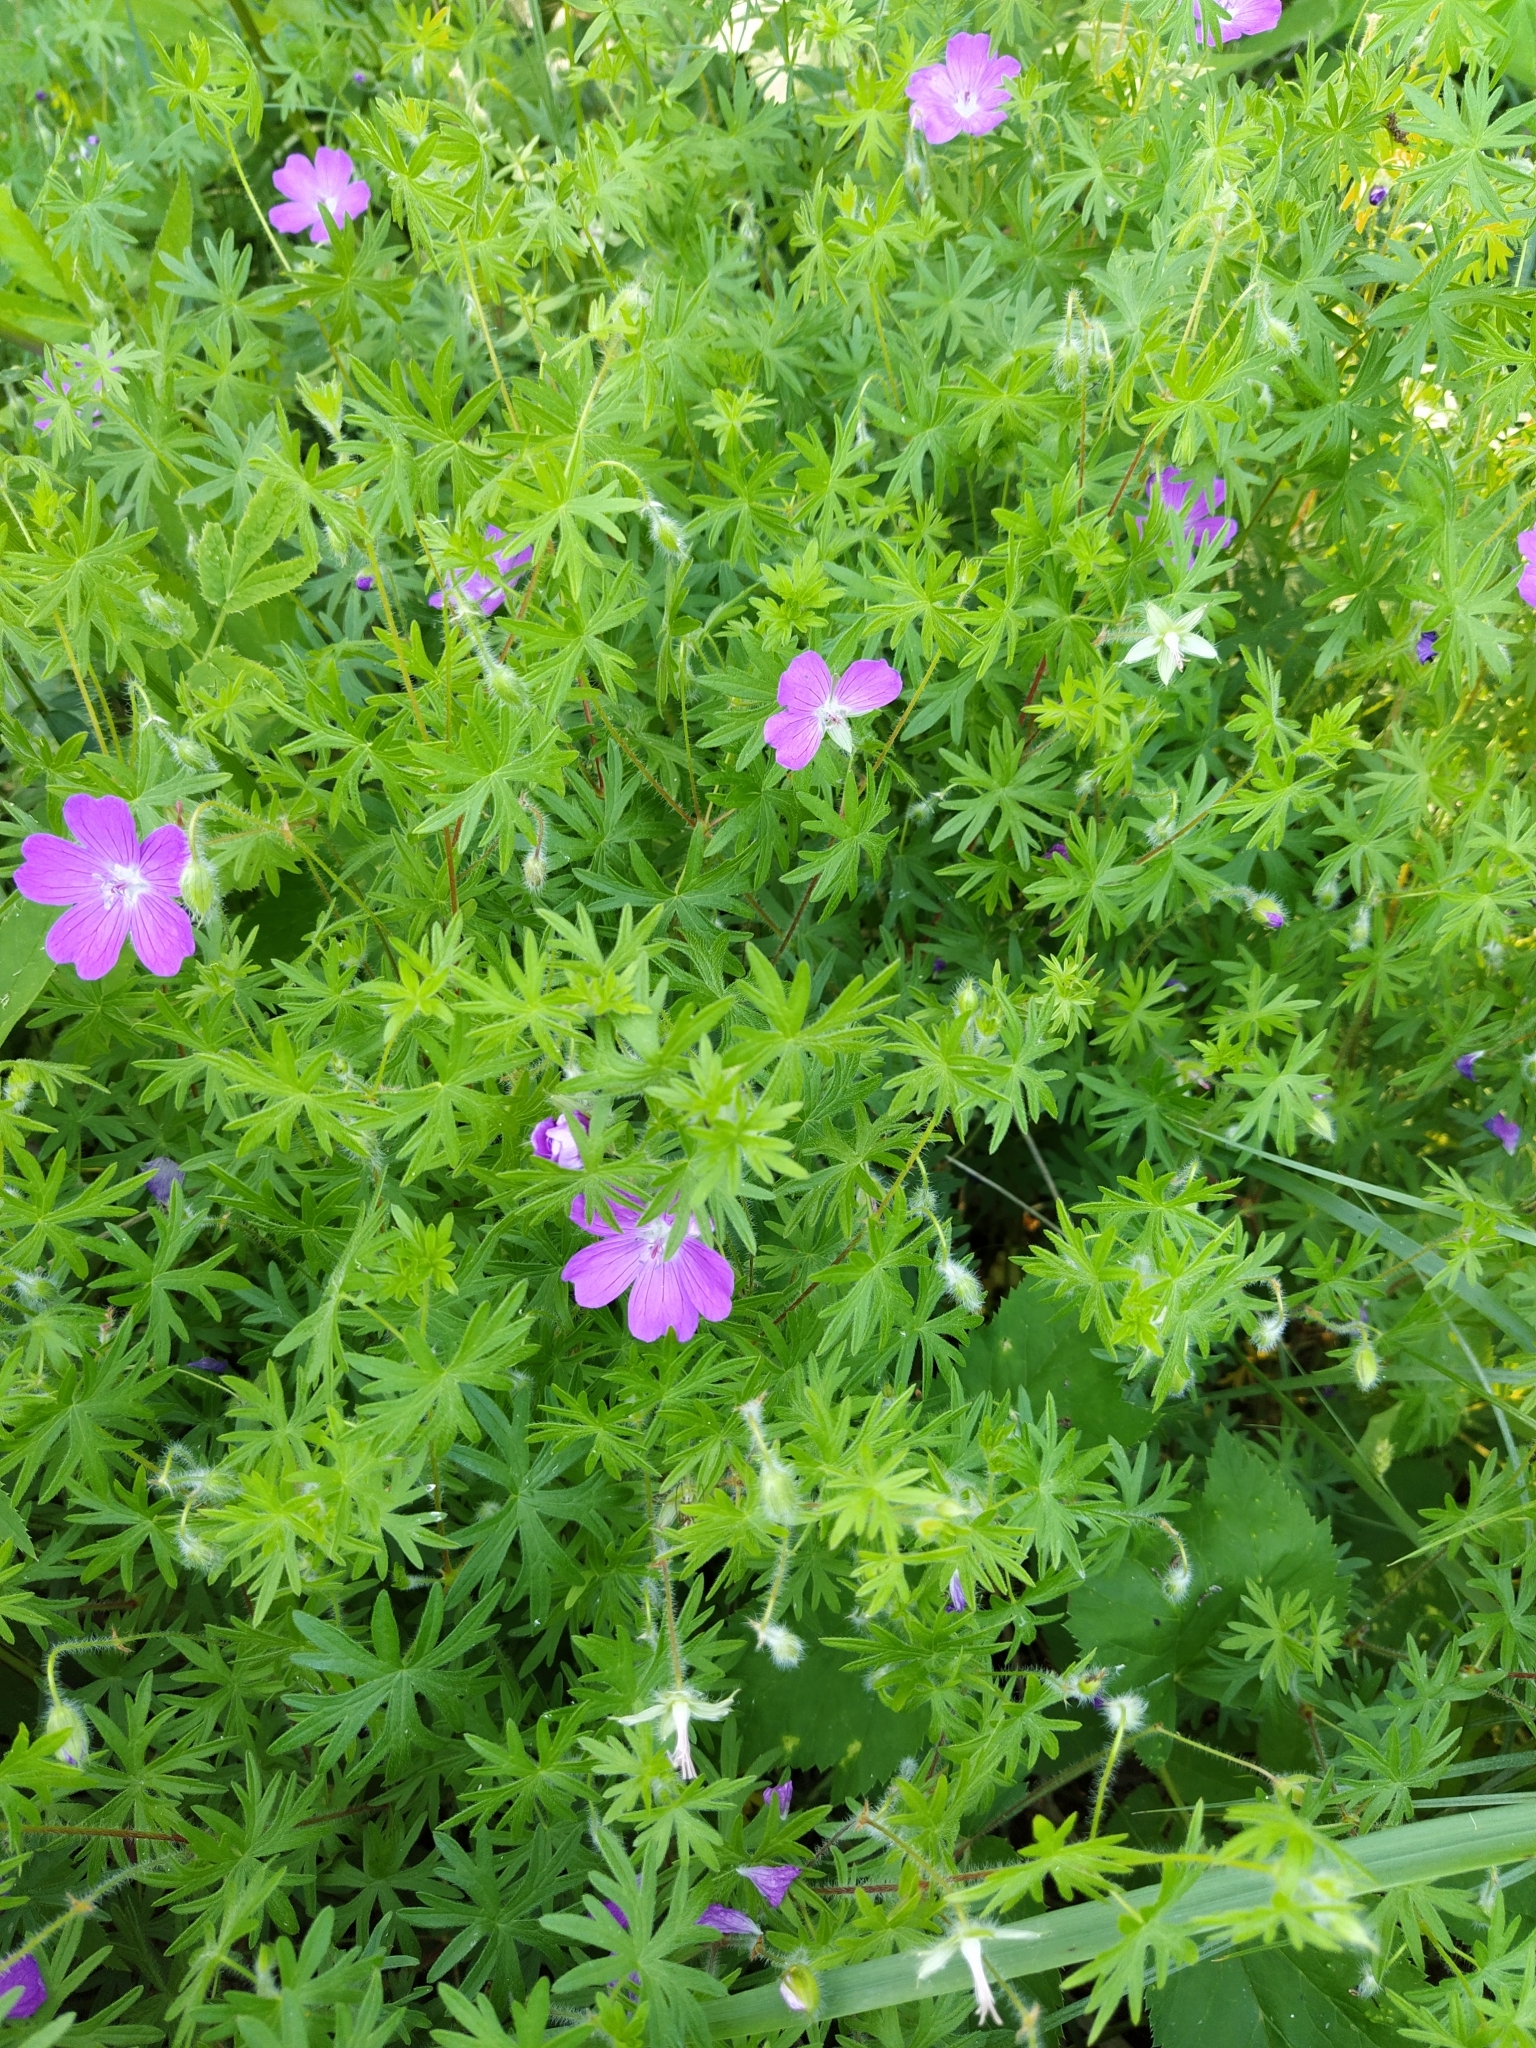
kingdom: Plantae
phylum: Tracheophyta
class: Magnoliopsida
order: Geraniales
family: Geraniaceae
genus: Geranium
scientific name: Geranium sanguineum
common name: Bloody crane's-bill
